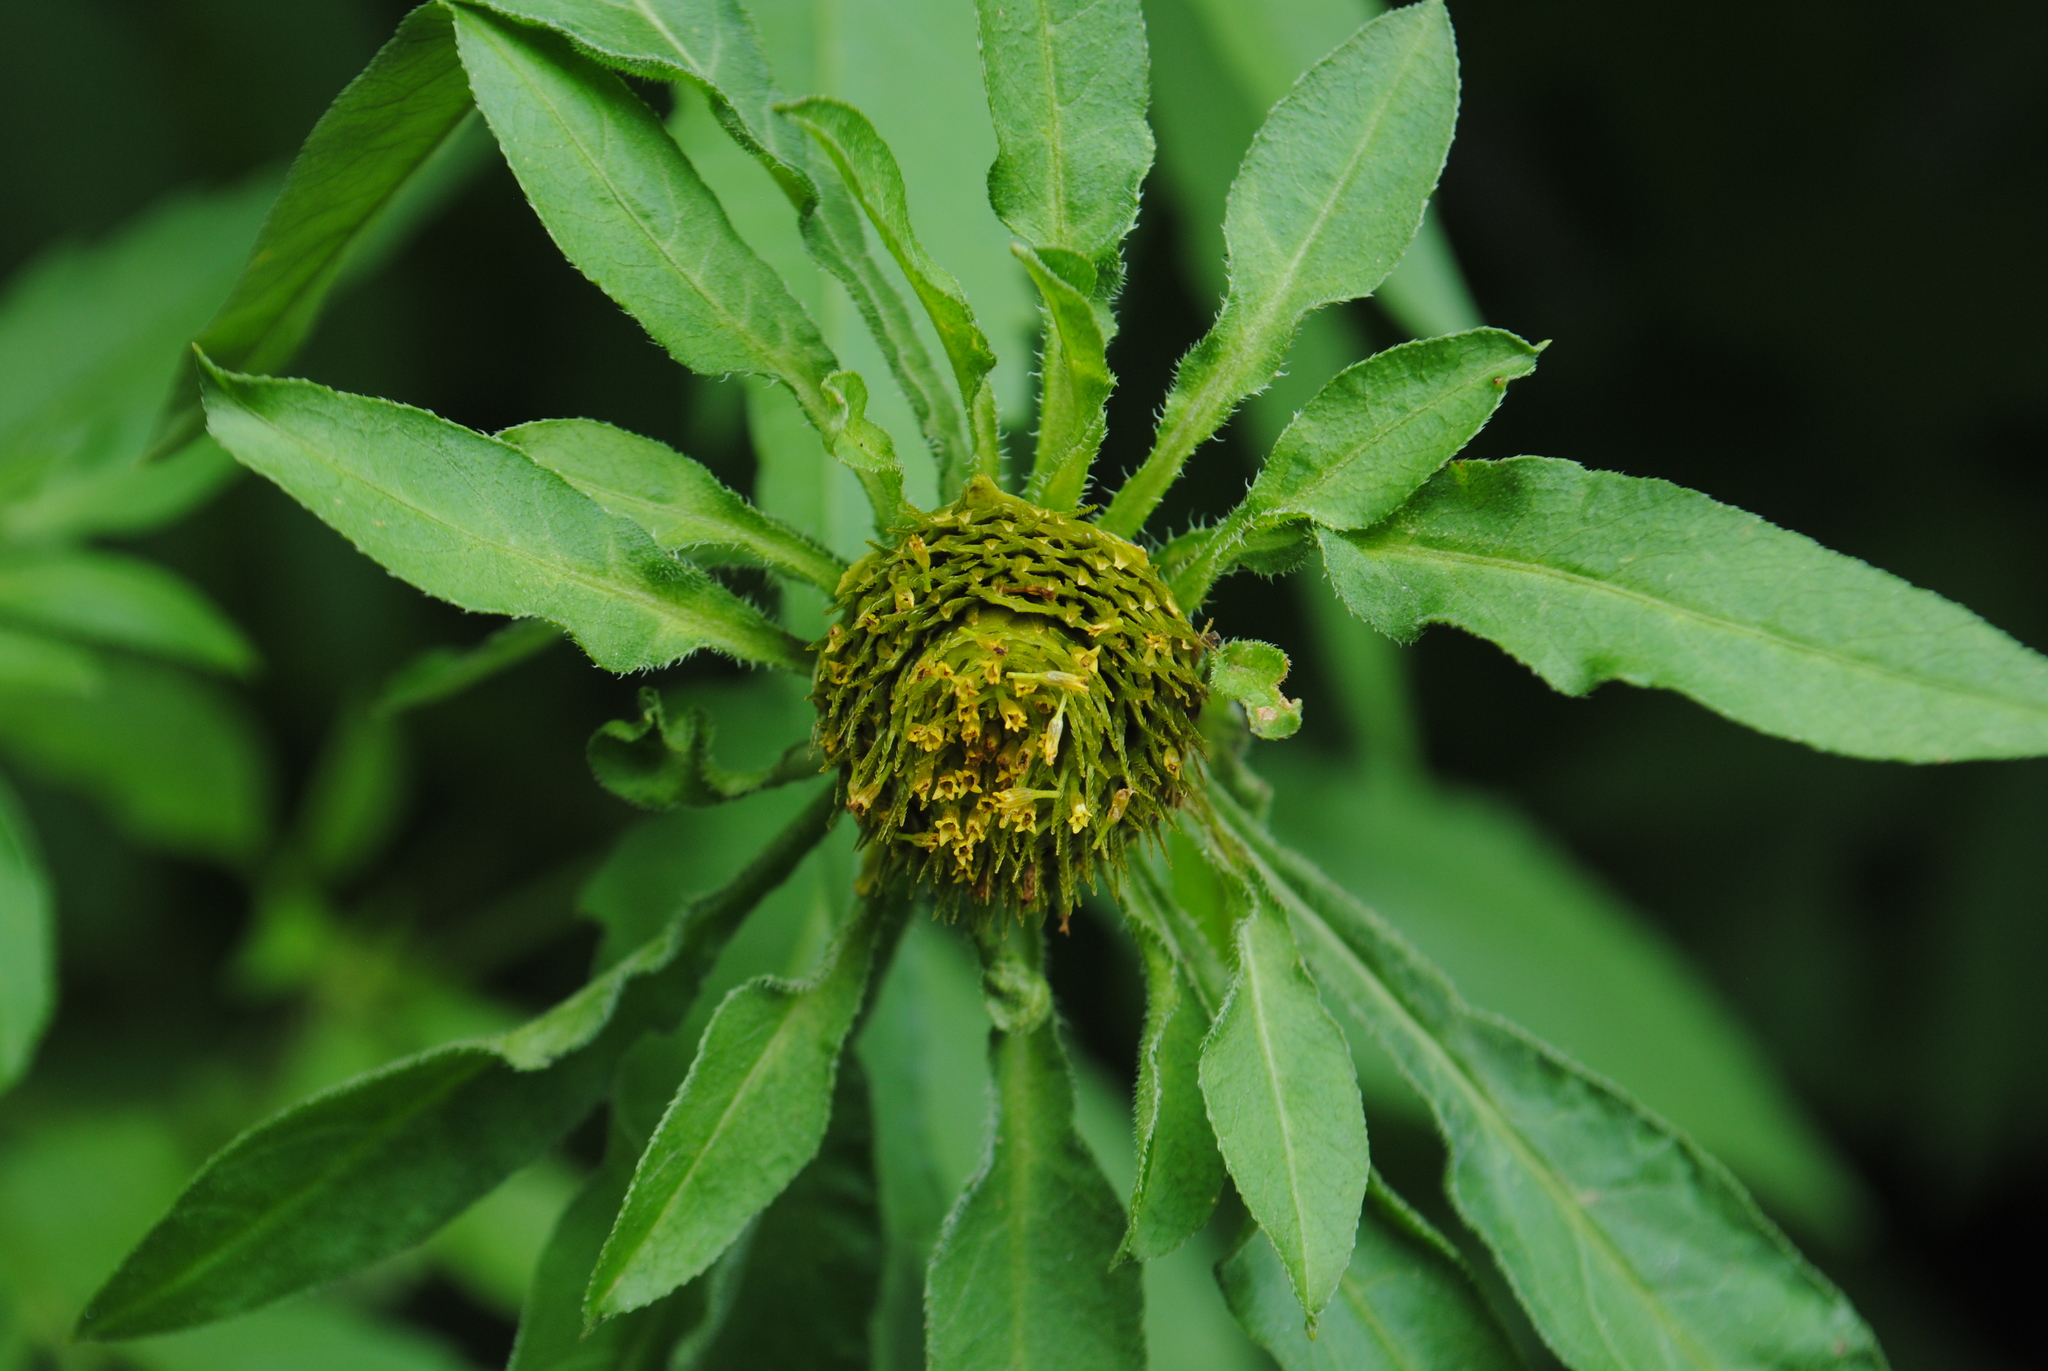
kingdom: Plantae
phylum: Tracheophyta
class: Magnoliopsida
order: Asterales
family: Asteraceae
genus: Bidens
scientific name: Bidens vulgata
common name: Tall beggarticks
